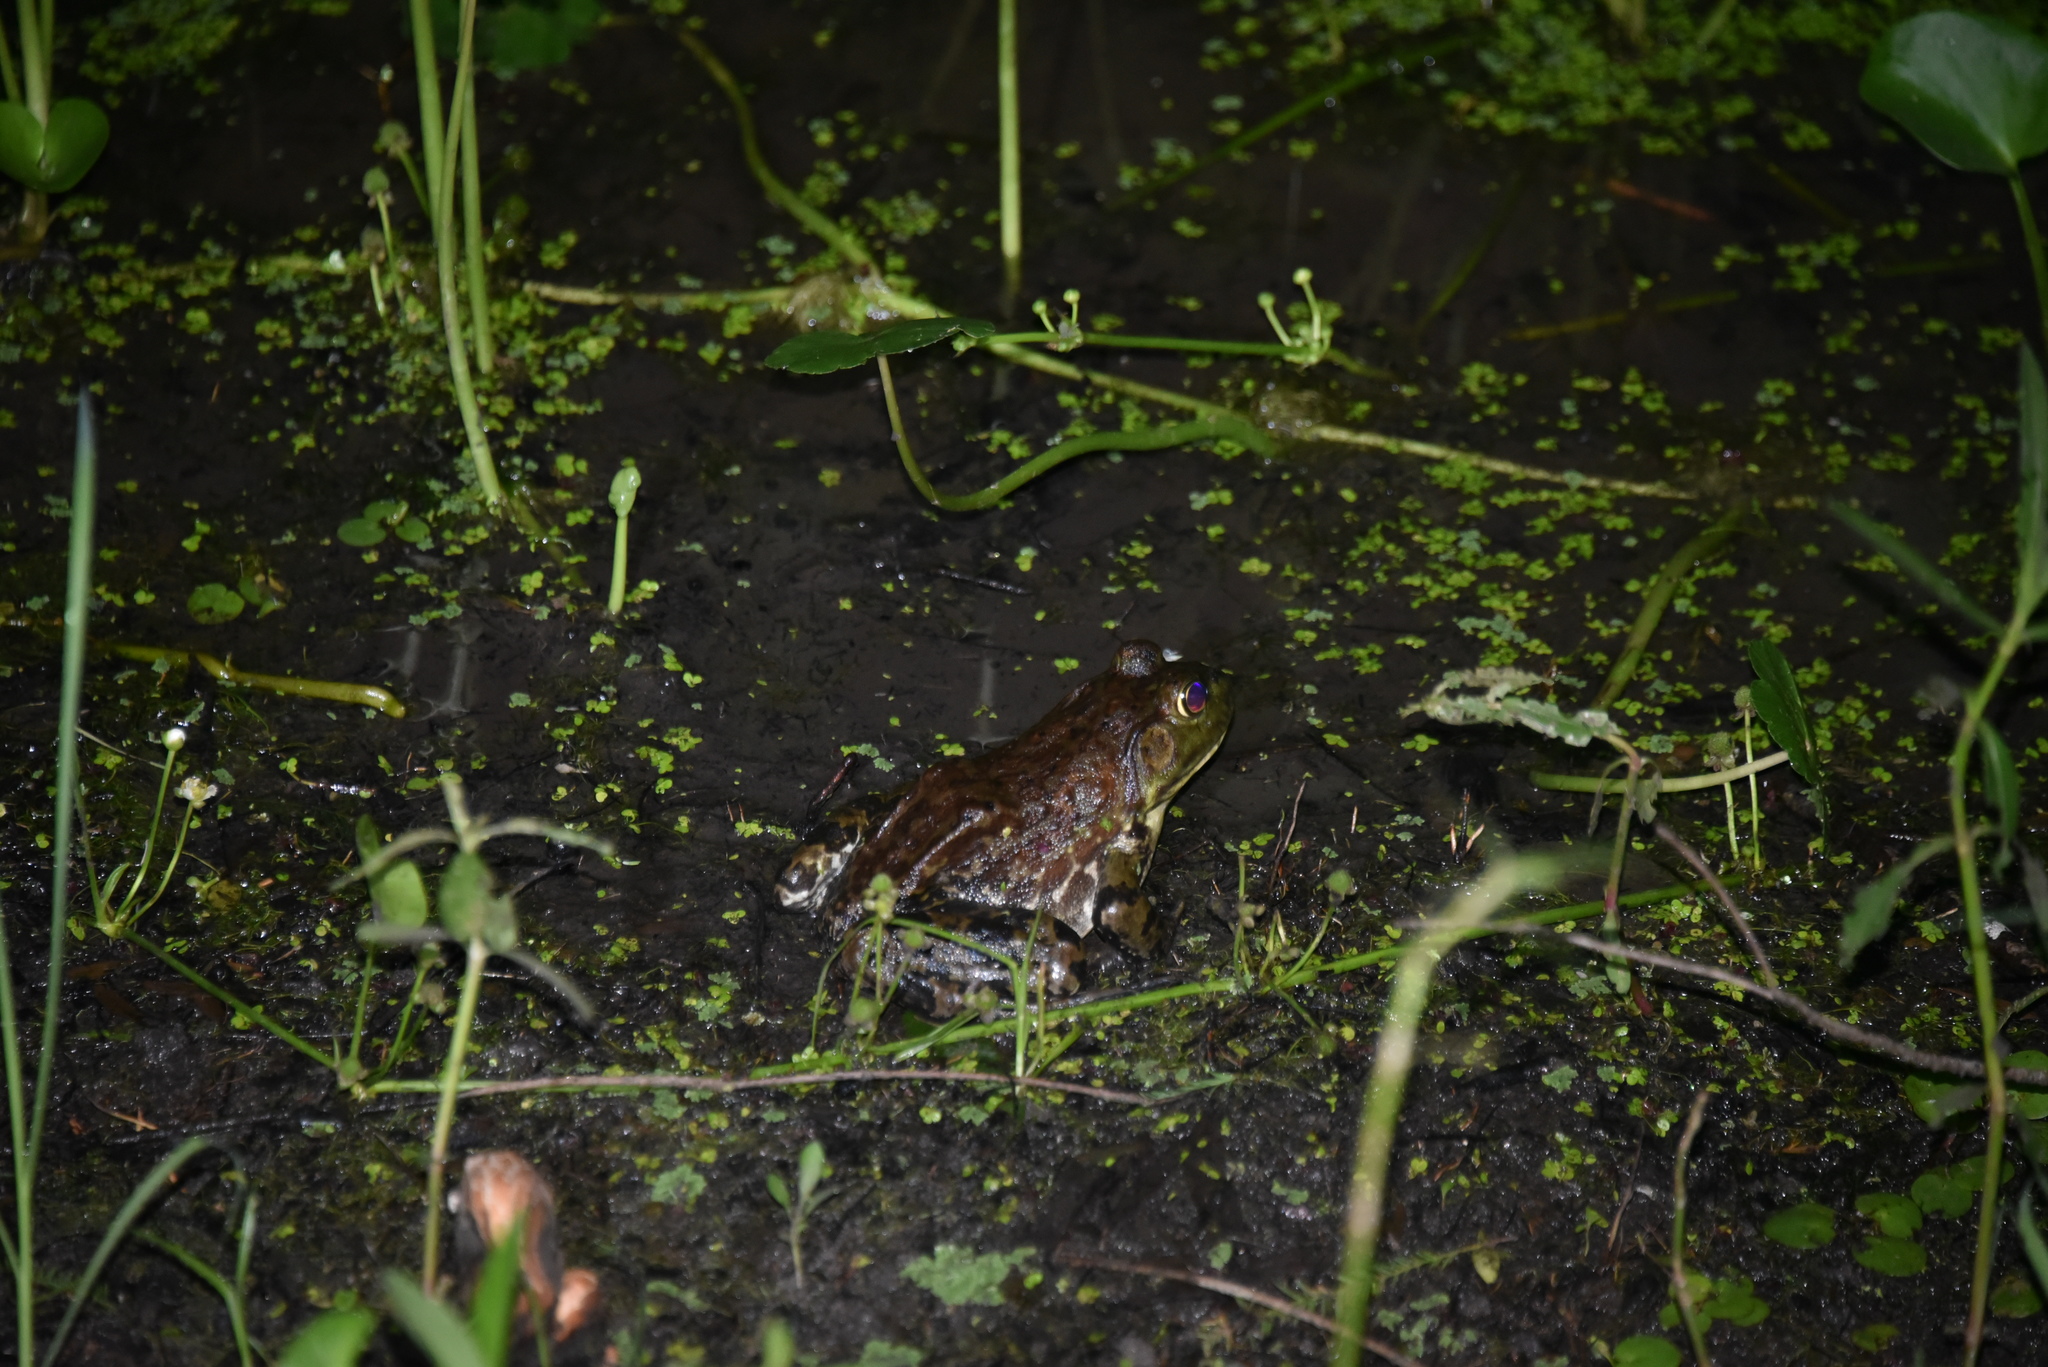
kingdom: Animalia
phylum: Chordata
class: Amphibia
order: Anura
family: Ranidae
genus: Lithobates
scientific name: Lithobates catesbeianus
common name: American bullfrog
